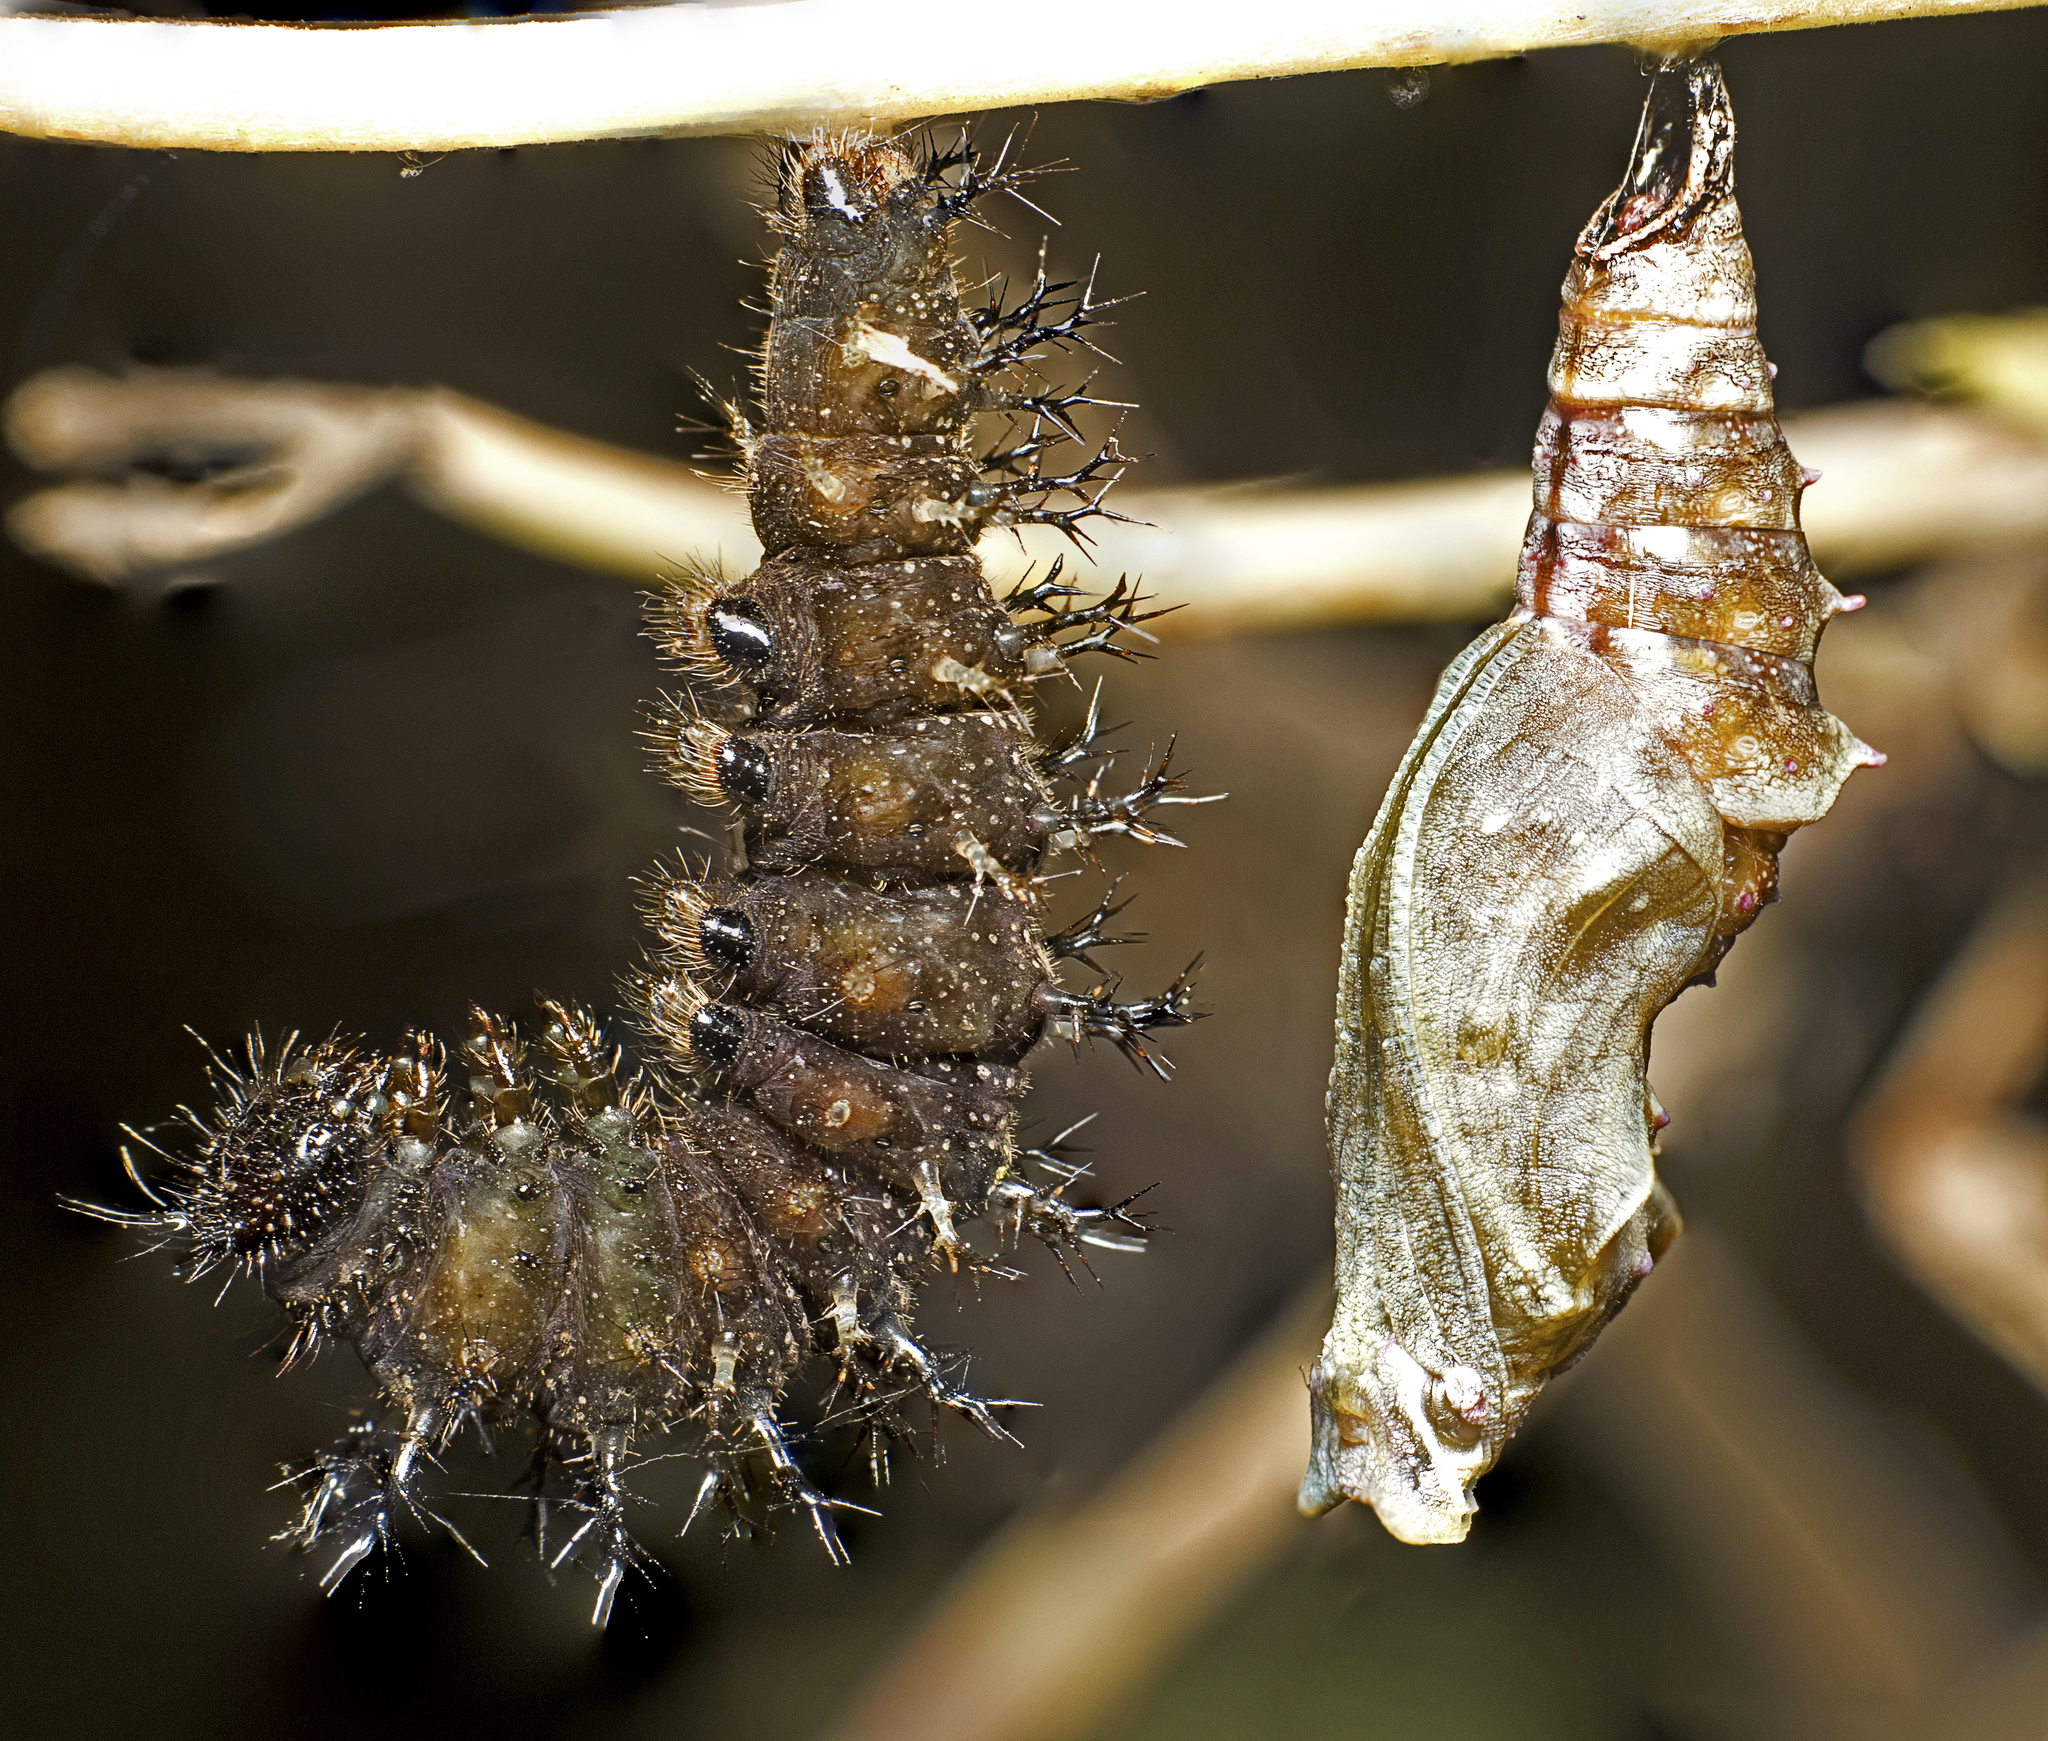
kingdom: Animalia
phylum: Arthropoda
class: Insecta
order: Lepidoptera
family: Nymphalidae
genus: Mynes
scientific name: Mynes geoffroyi
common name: Jezebel nymph
